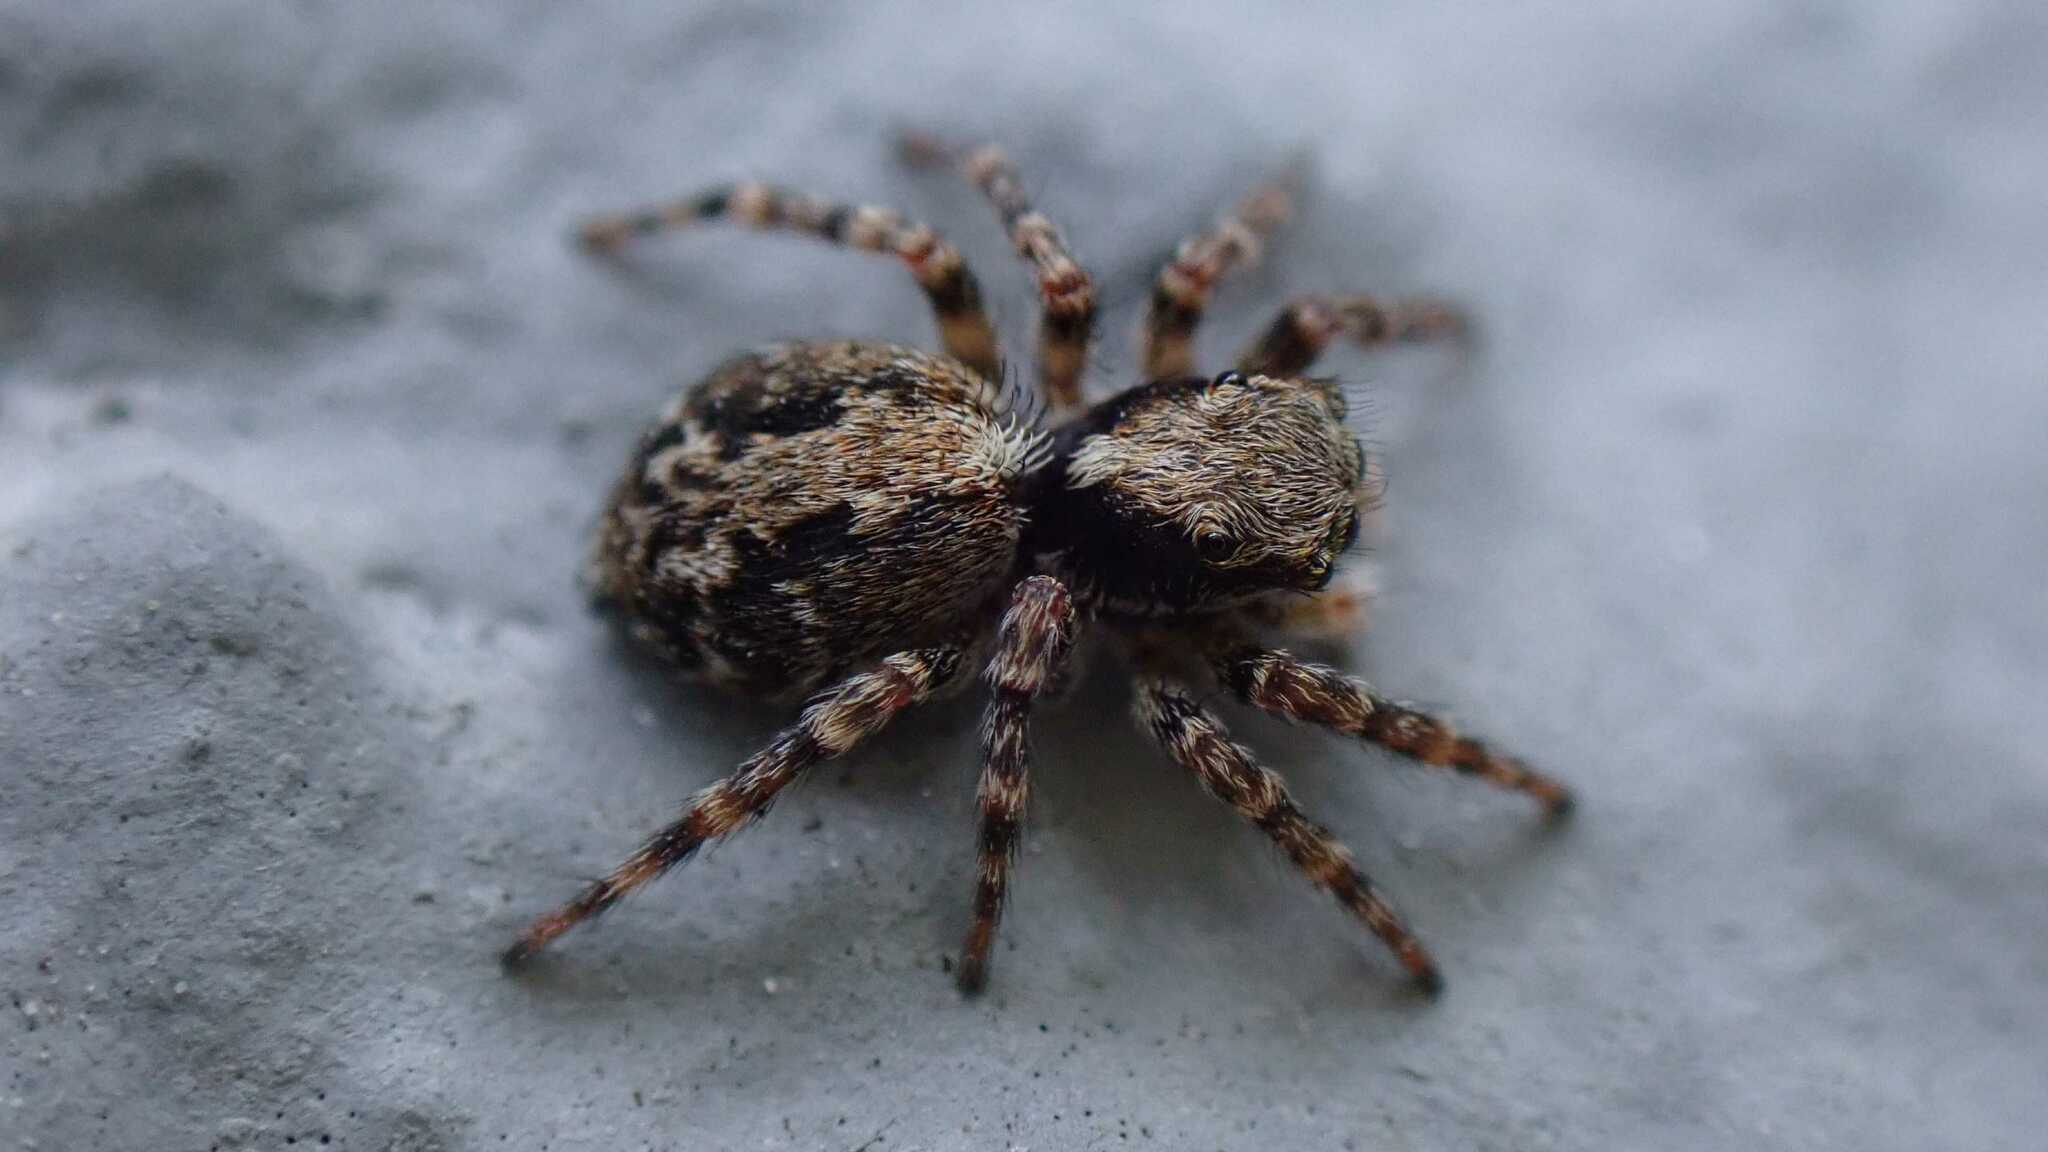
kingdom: Animalia
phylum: Arthropoda
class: Arachnida
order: Araneae
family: Salticidae
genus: Pseudeuophrys
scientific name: Pseudeuophrys lanigera
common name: Jumping spider
